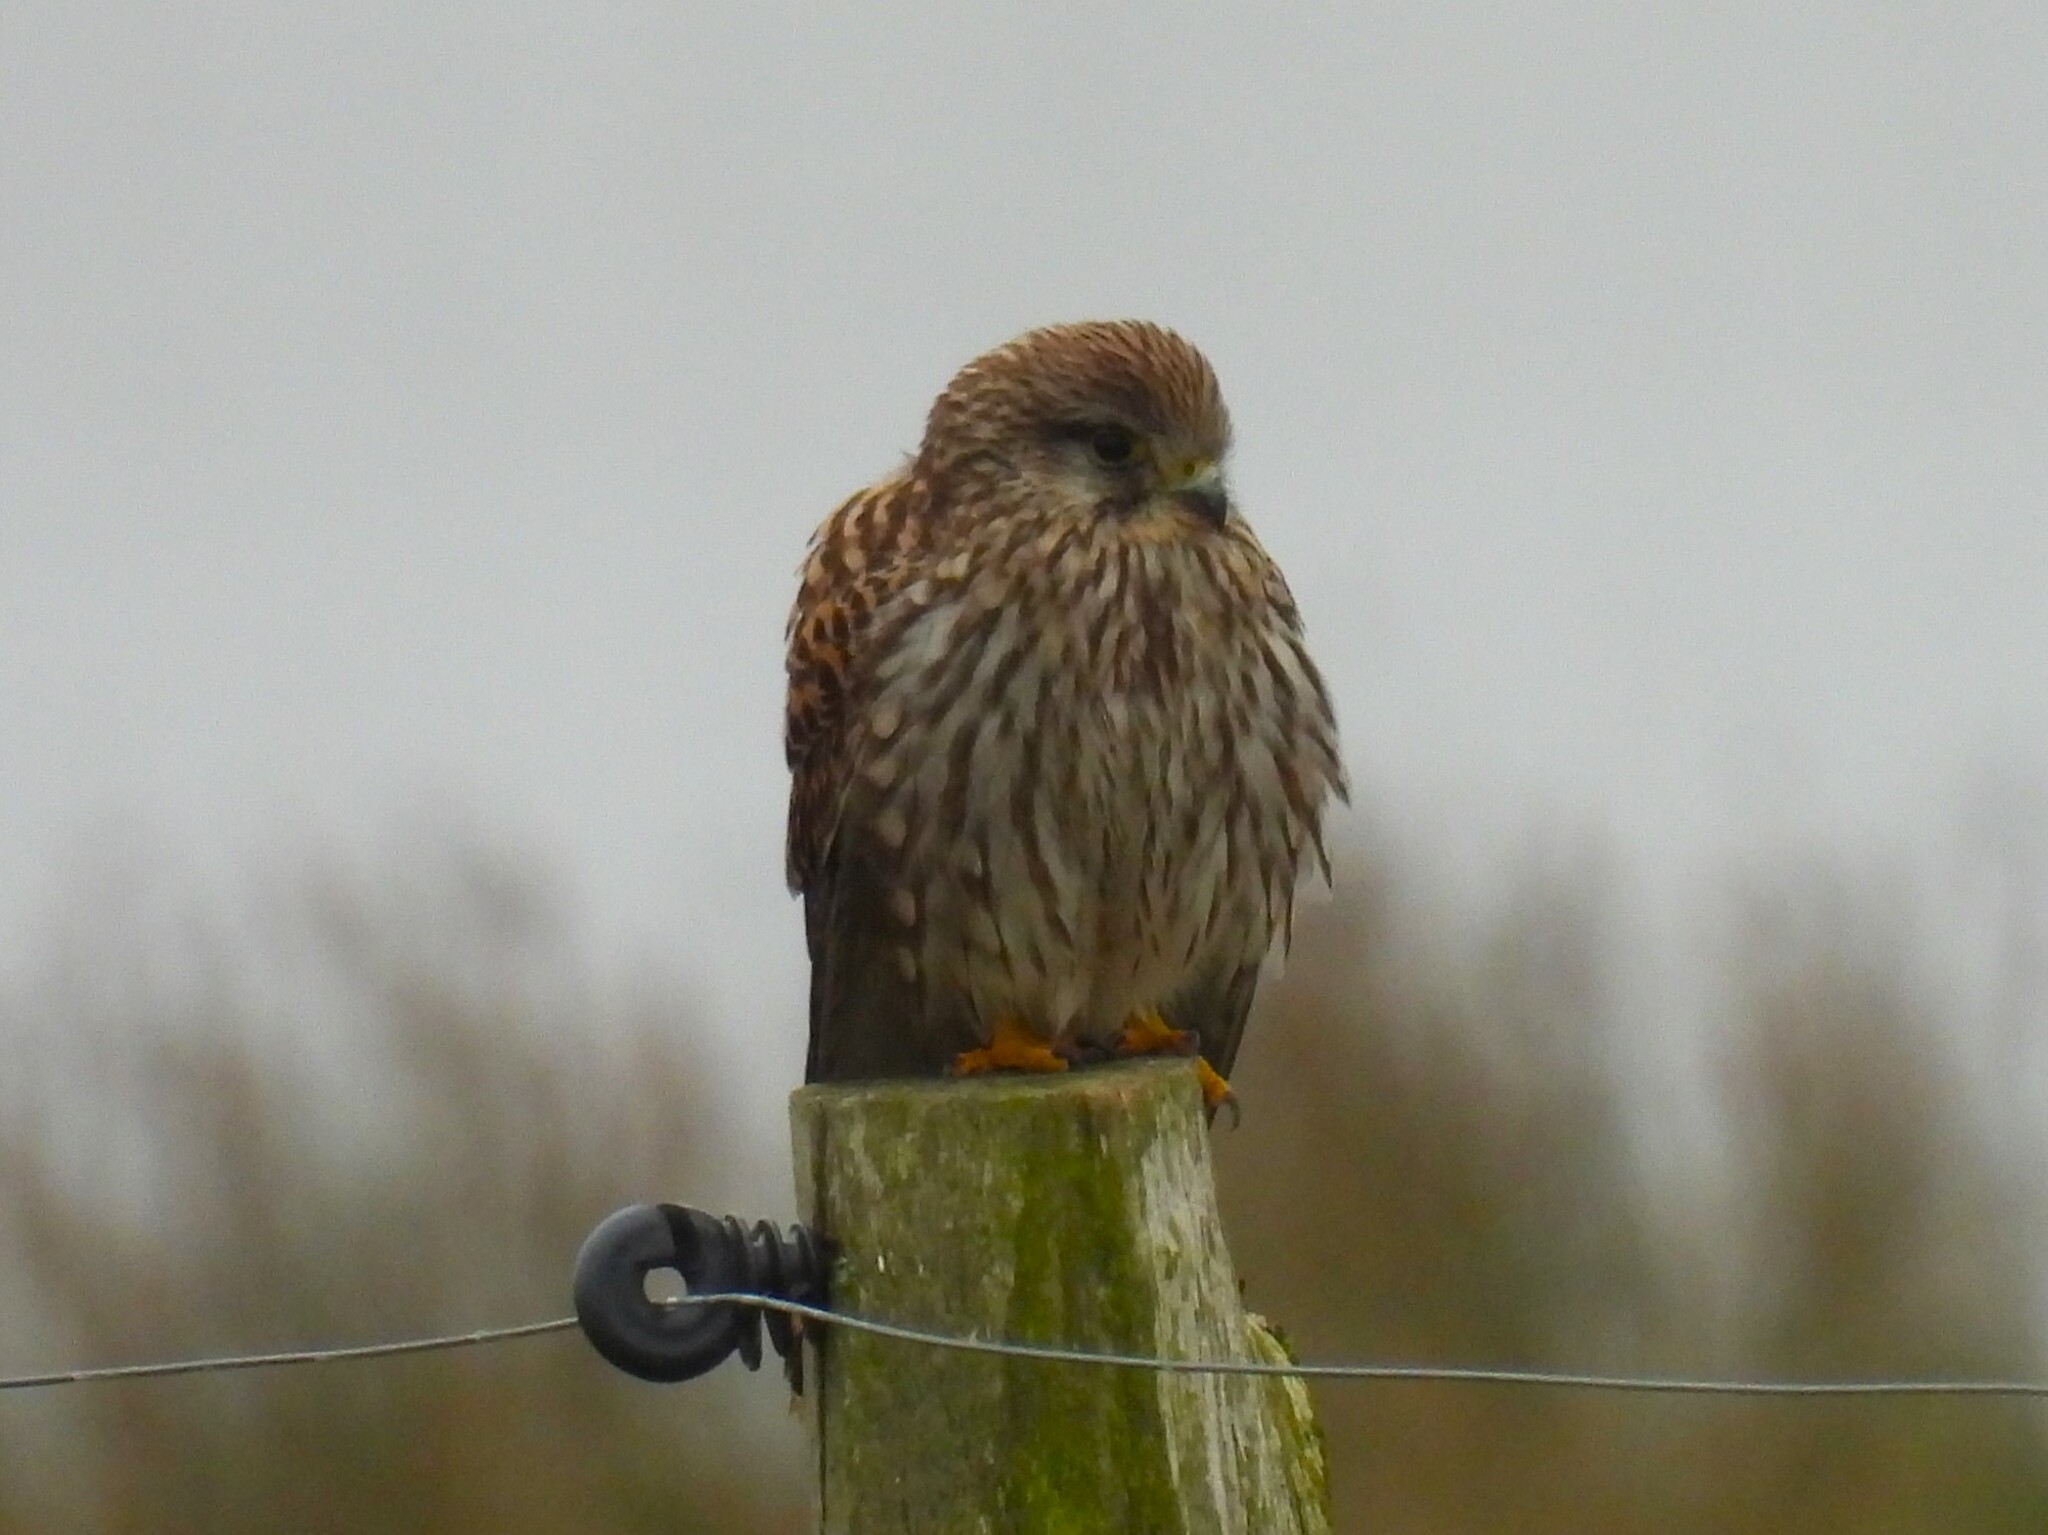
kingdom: Animalia
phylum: Chordata
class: Aves
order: Falconiformes
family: Falconidae
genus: Falco
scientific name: Falco tinnunculus
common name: Common kestrel
